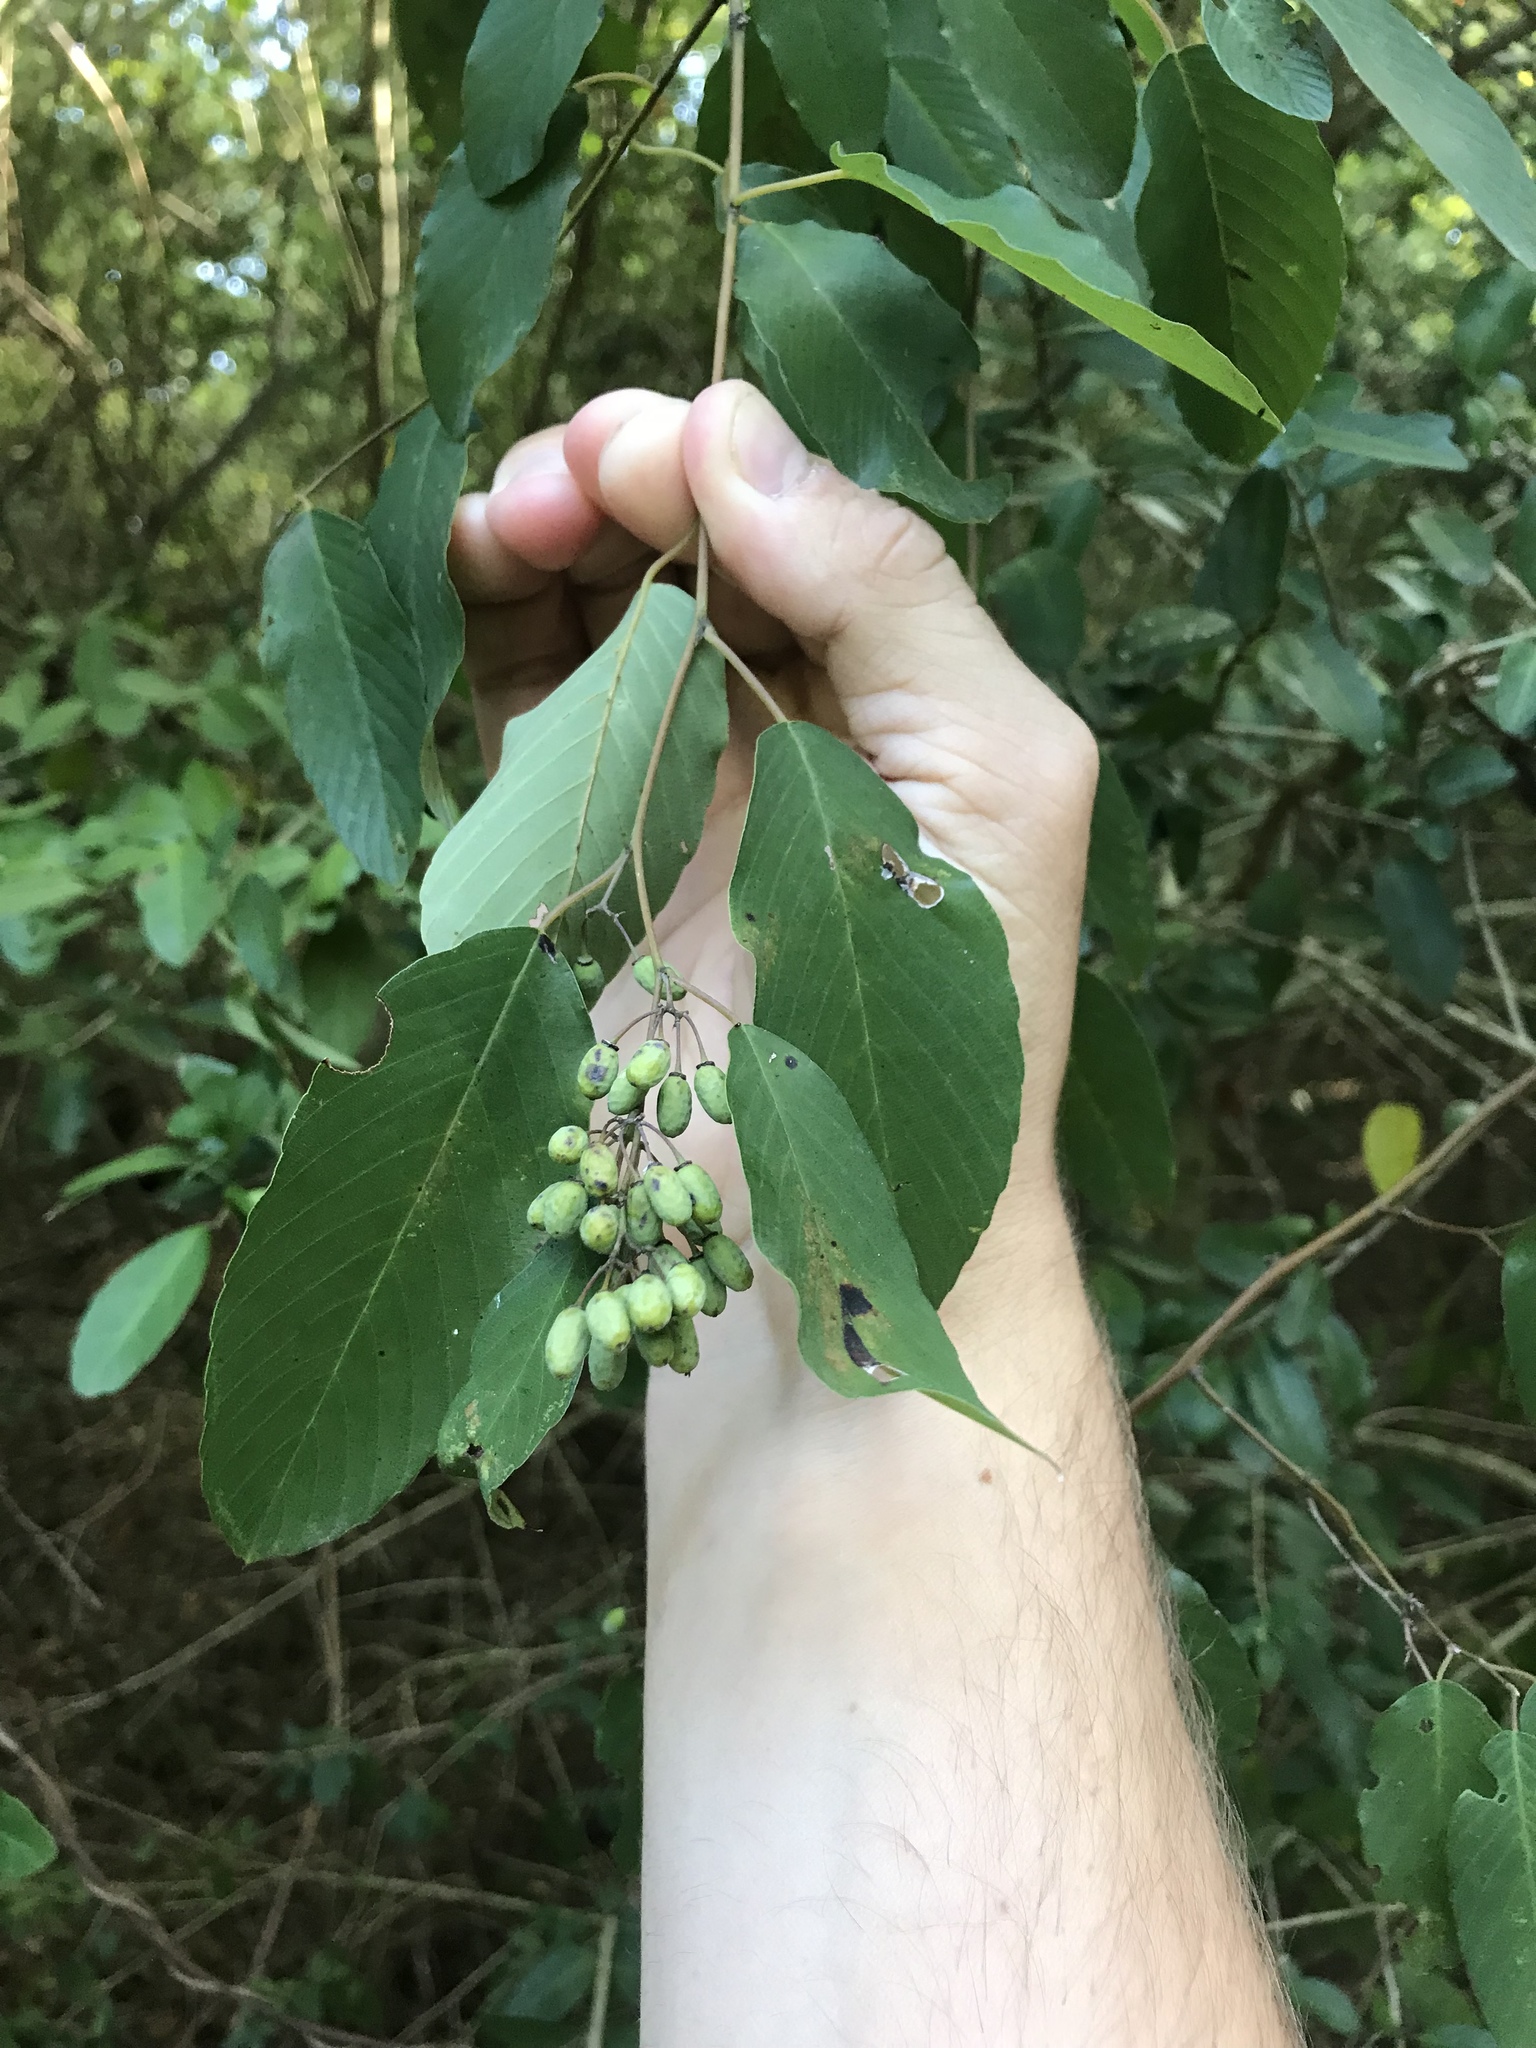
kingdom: Plantae
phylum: Tracheophyta
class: Magnoliopsida
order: Rosales
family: Rhamnaceae
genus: Berchemia
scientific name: Berchemia scandens
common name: Supplejack
